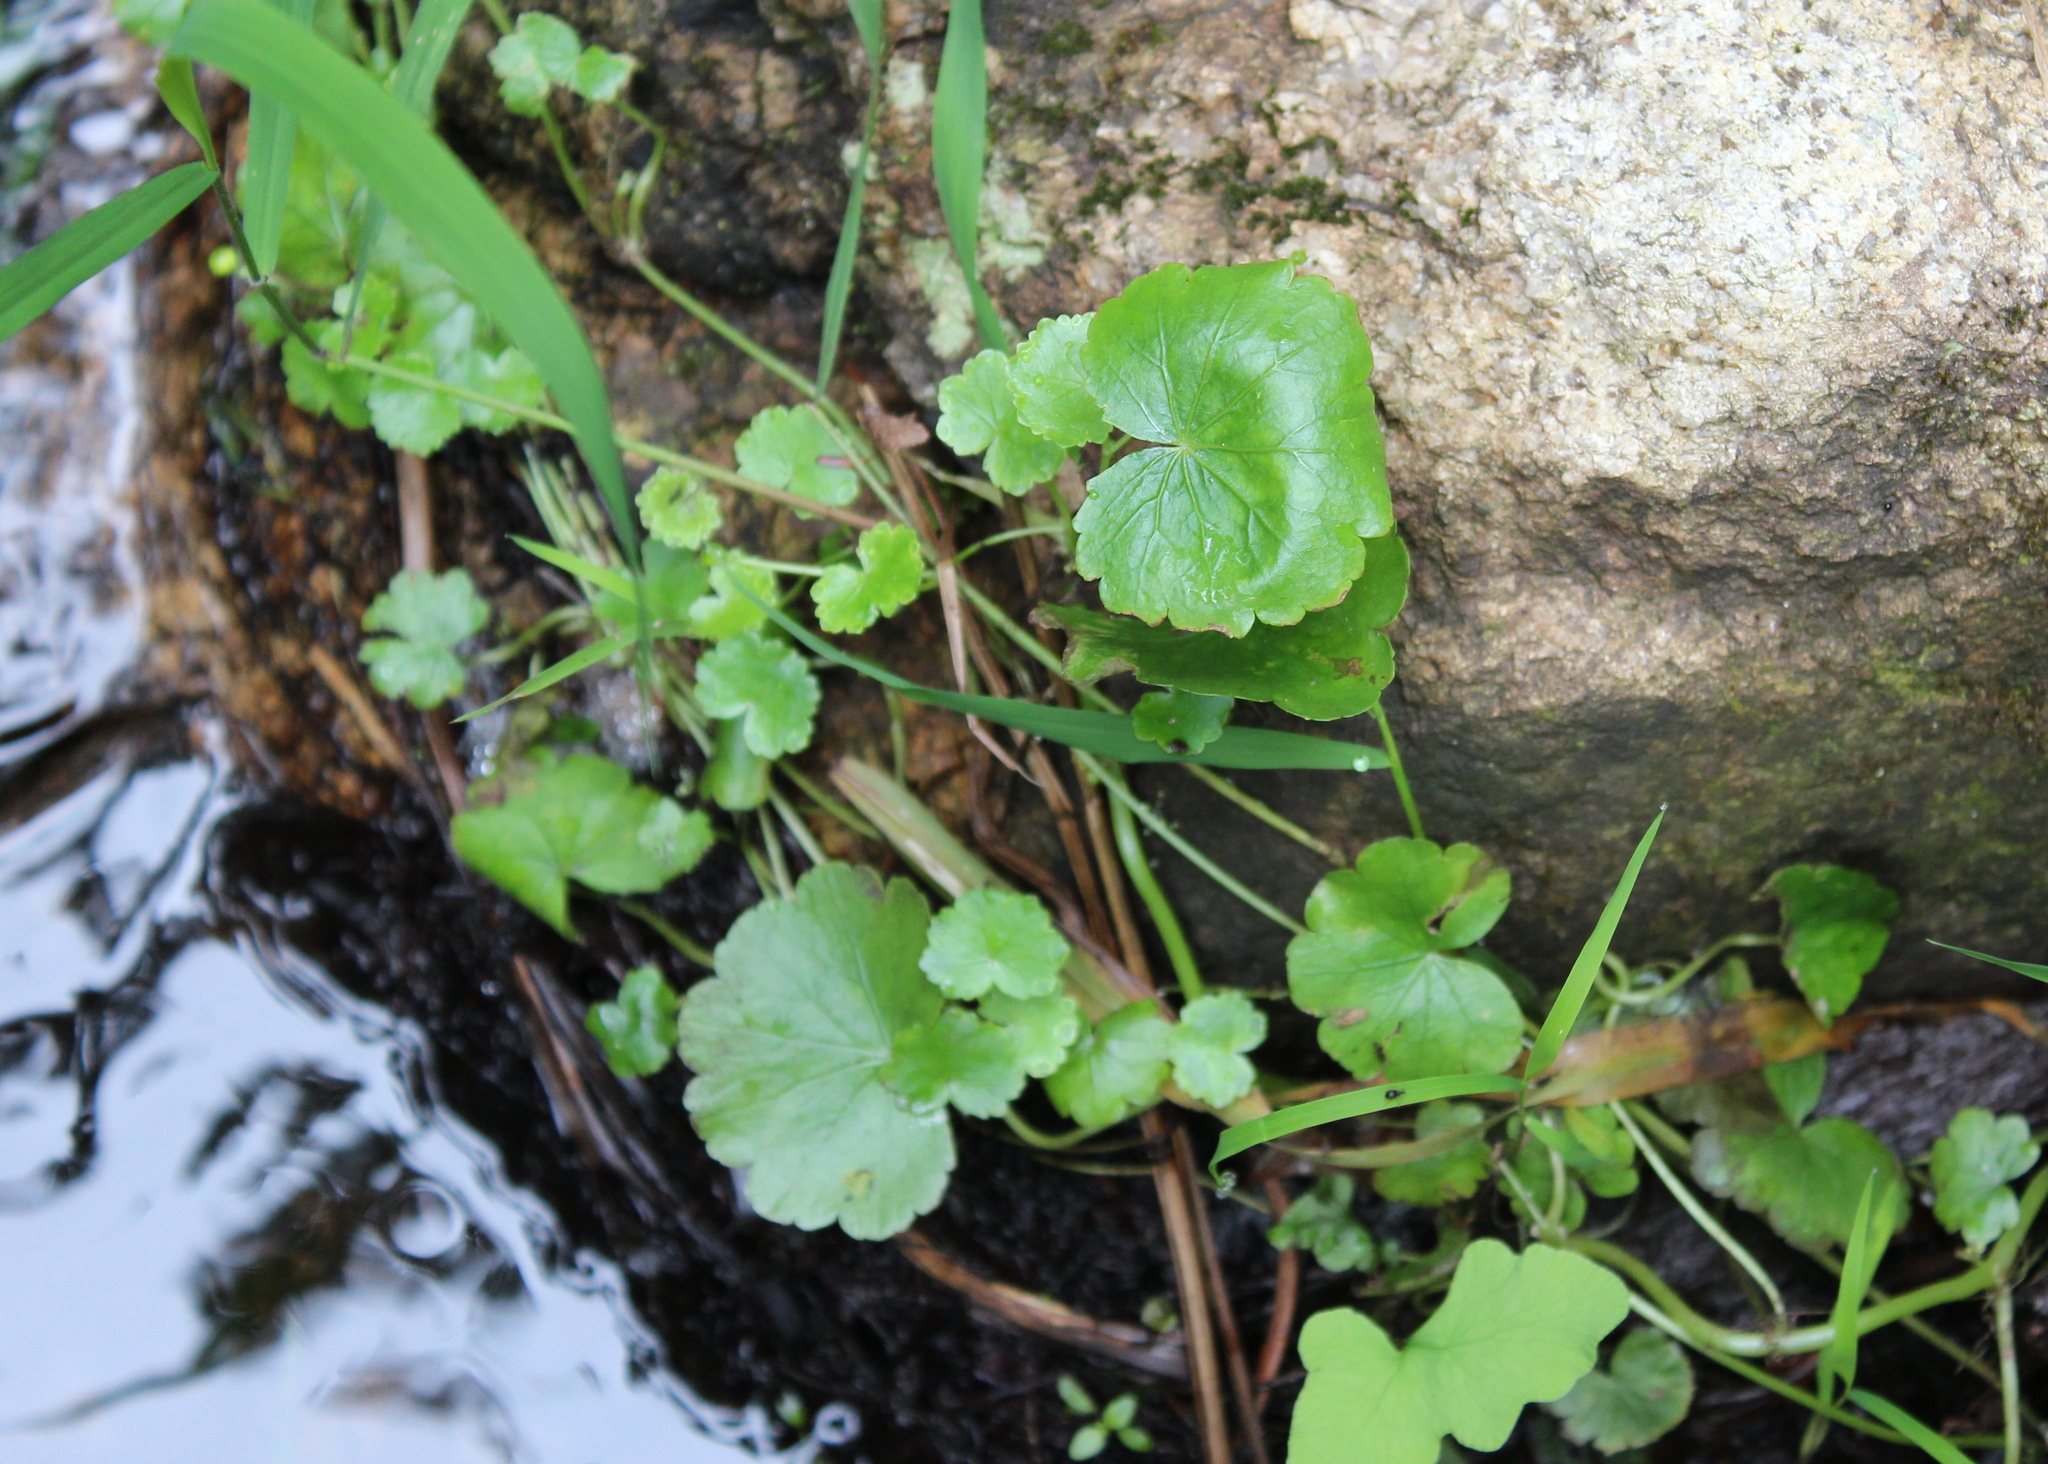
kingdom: Plantae
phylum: Tracheophyta
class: Magnoliopsida
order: Apiales
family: Araliaceae
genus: Hydrocotyle
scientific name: Hydrocotyle americana
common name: American water-pennywort
